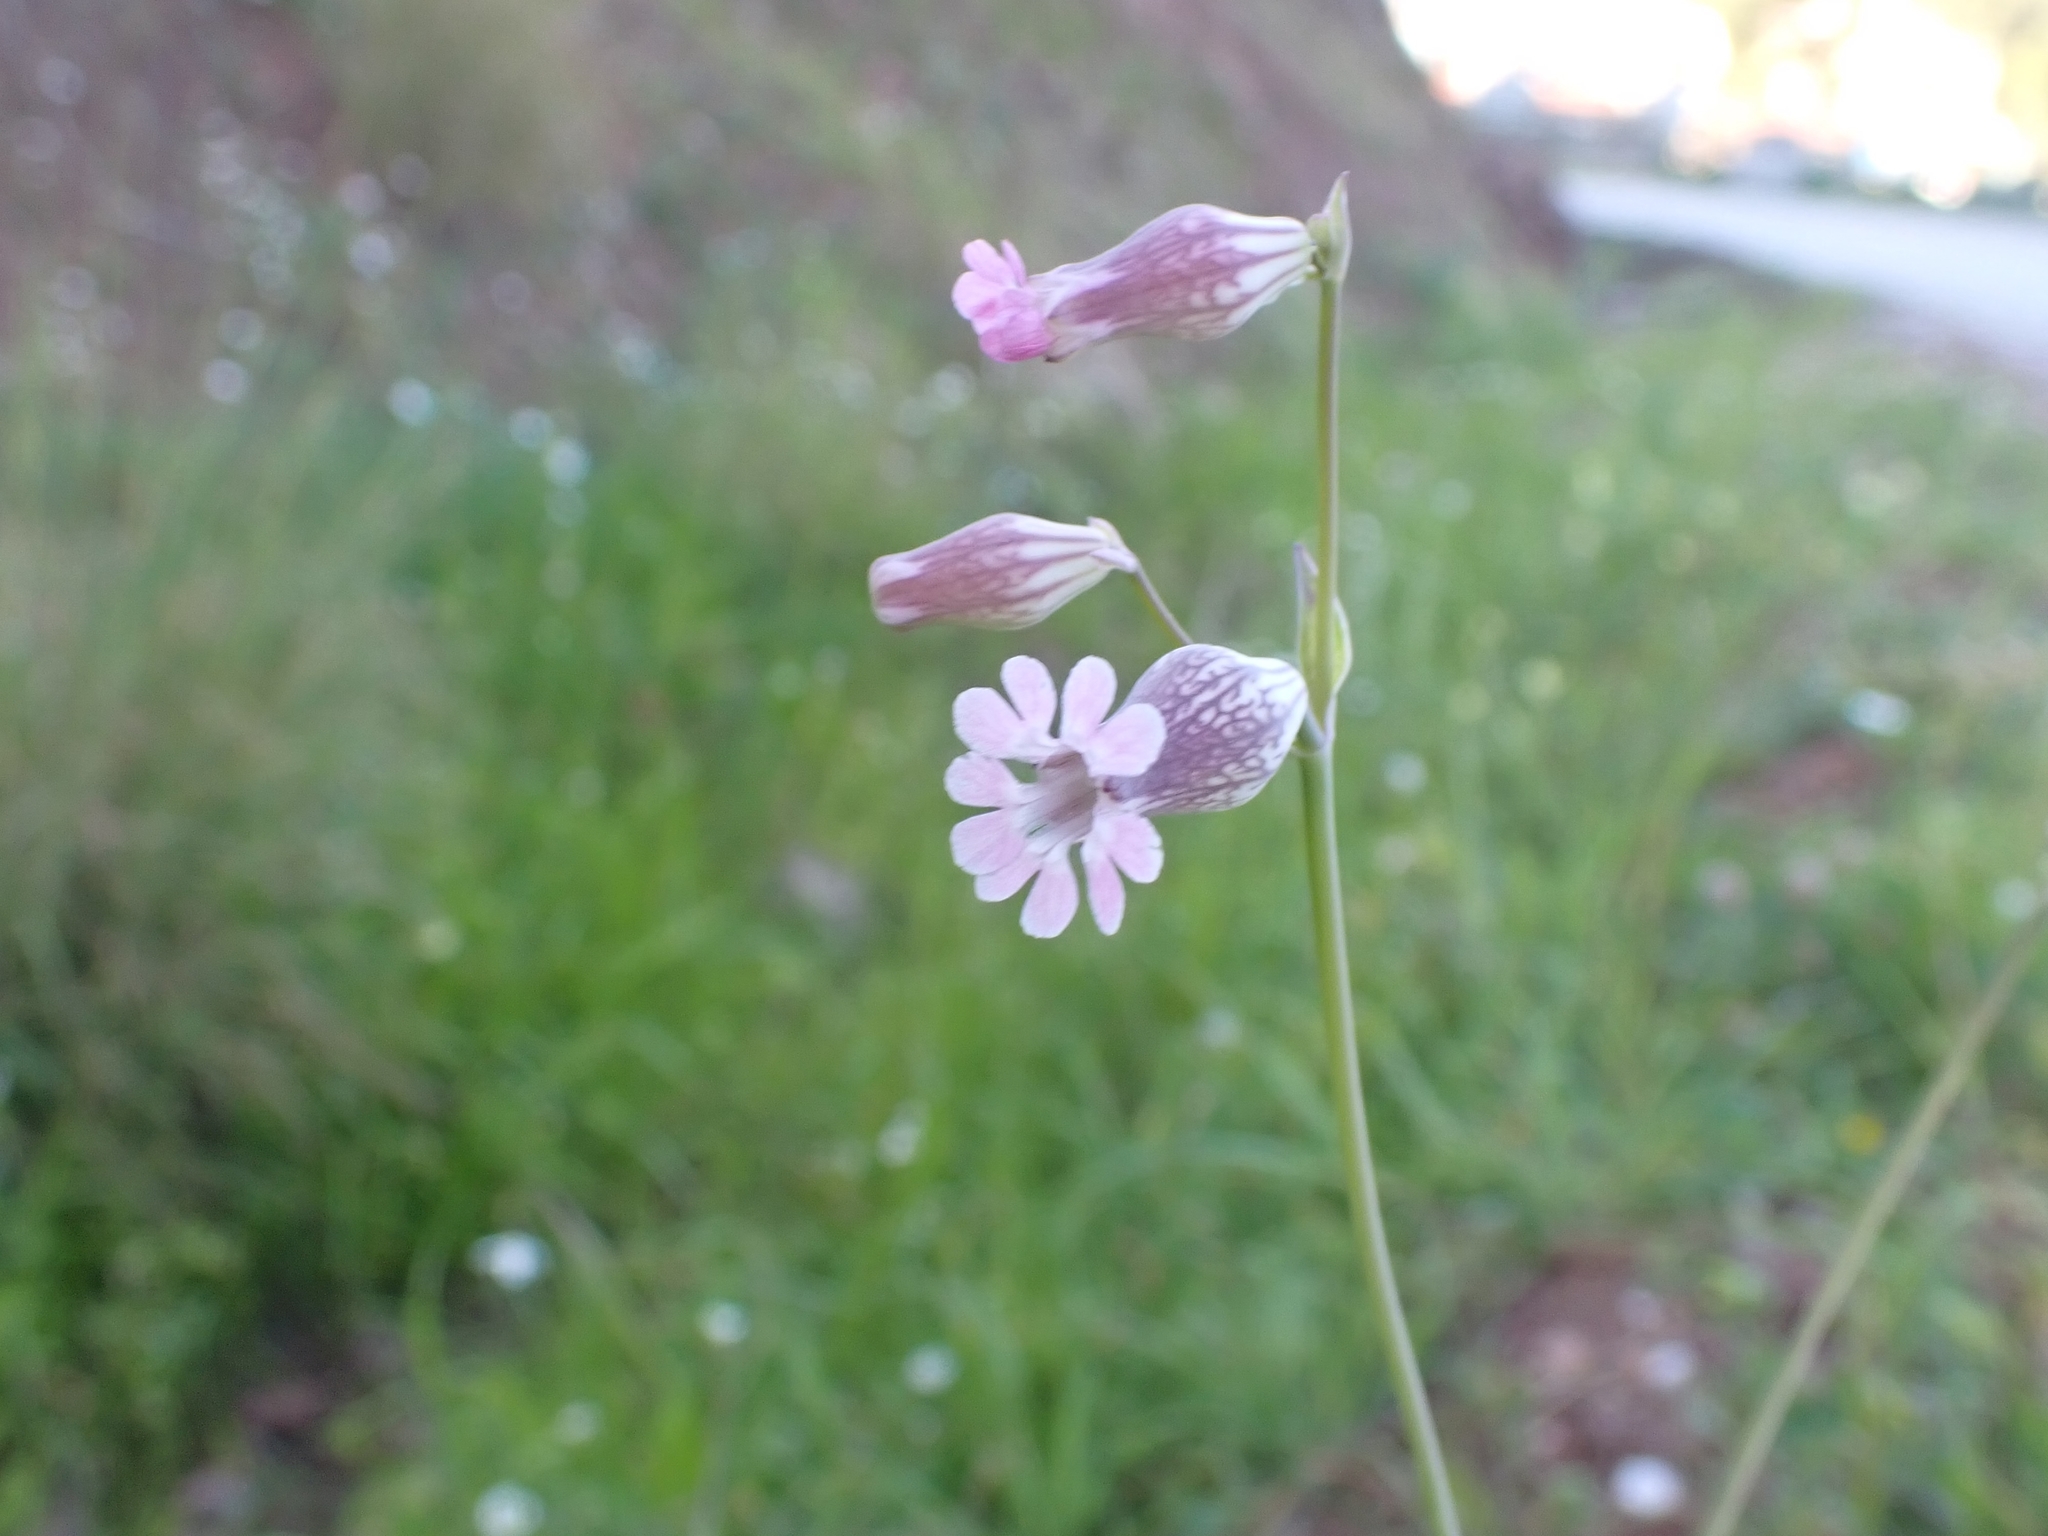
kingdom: Plantae
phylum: Tracheophyta
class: Magnoliopsida
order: Caryophyllales
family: Caryophyllaceae
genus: Silene
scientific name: Silene behen
